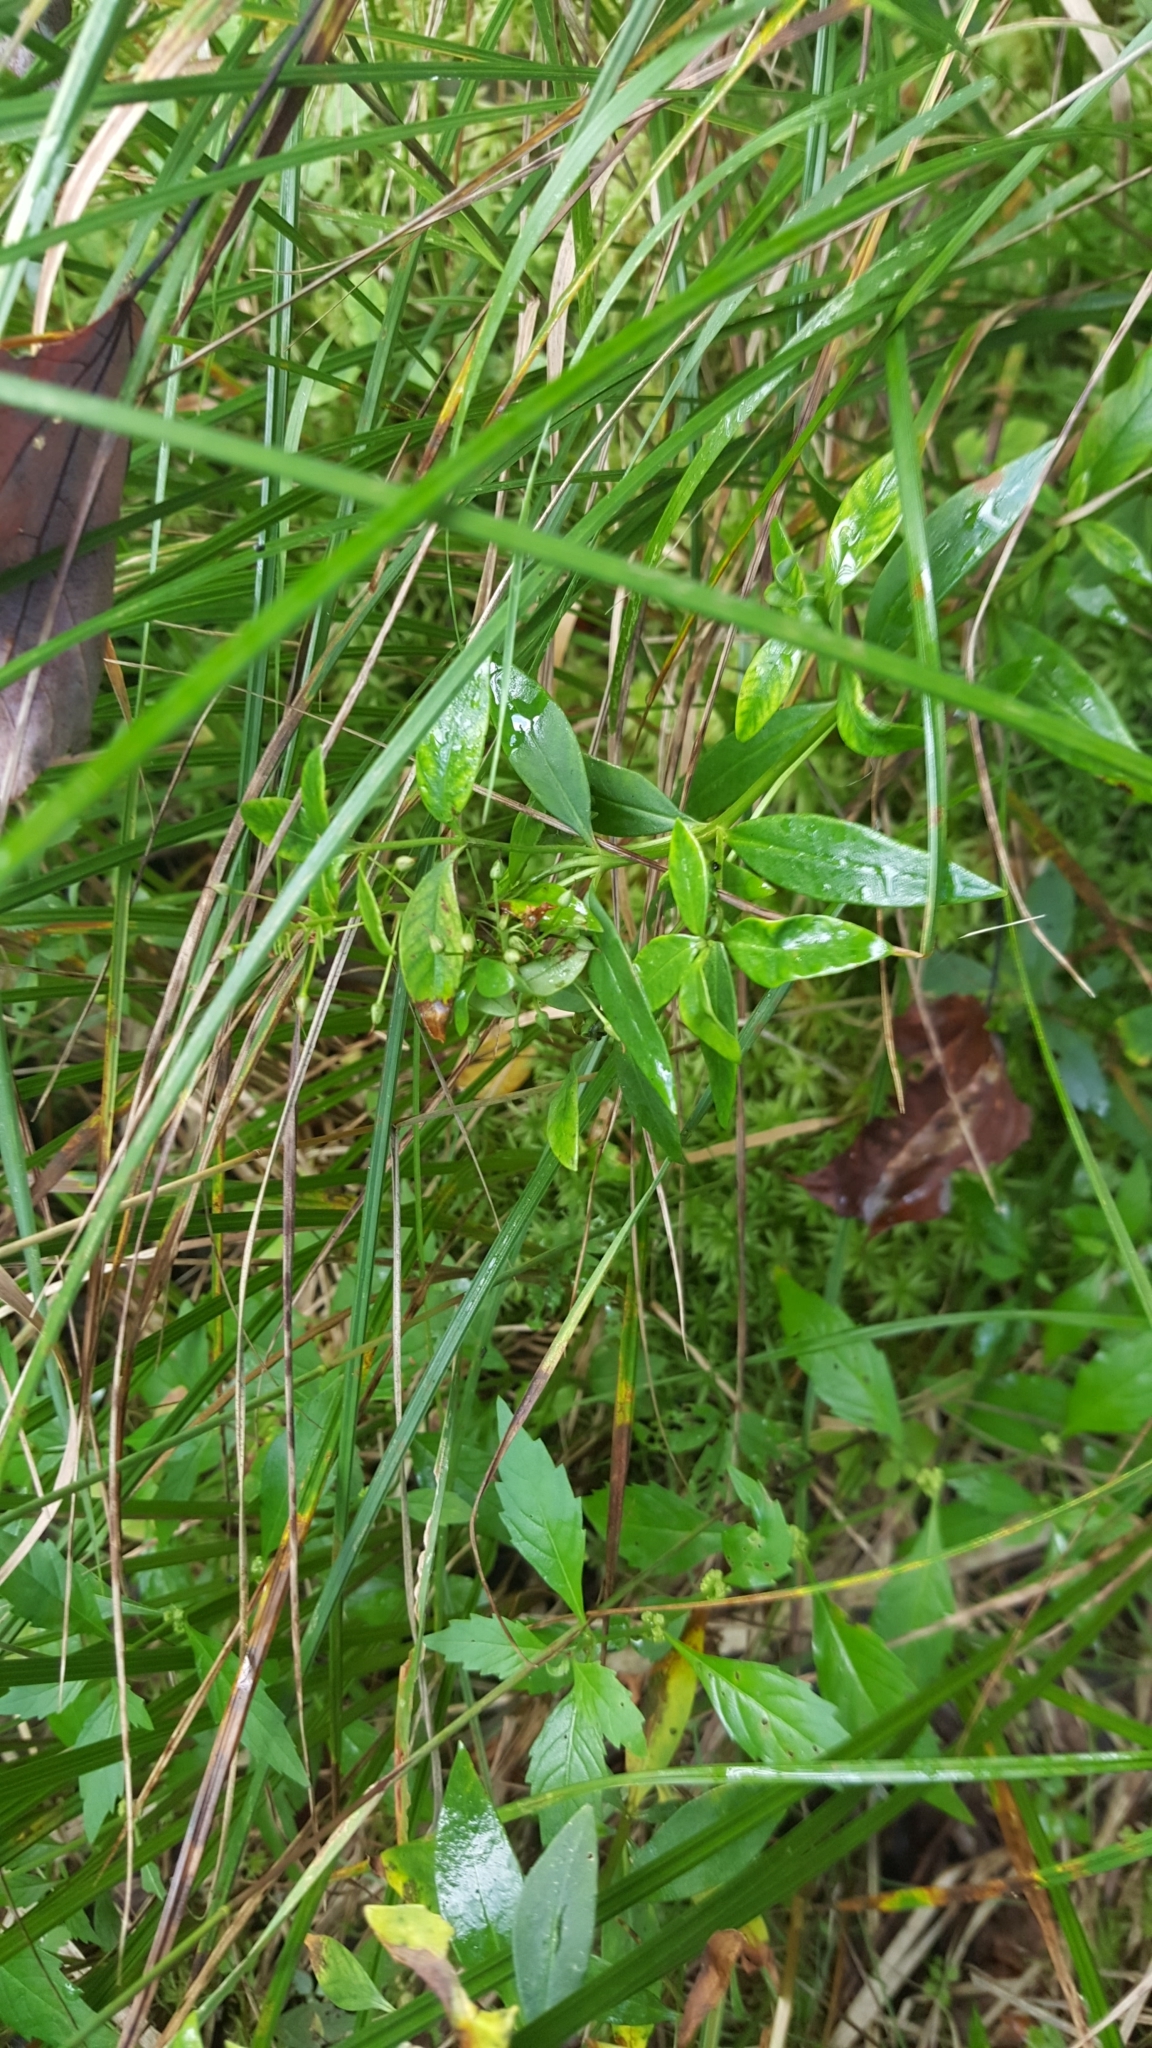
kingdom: Plantae
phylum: Tracheophyta
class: Magnoliopsida
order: Ericales
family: Primulaceae
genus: Lysimachia
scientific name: Lysimachia terrestris
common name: Lake loosestrife
